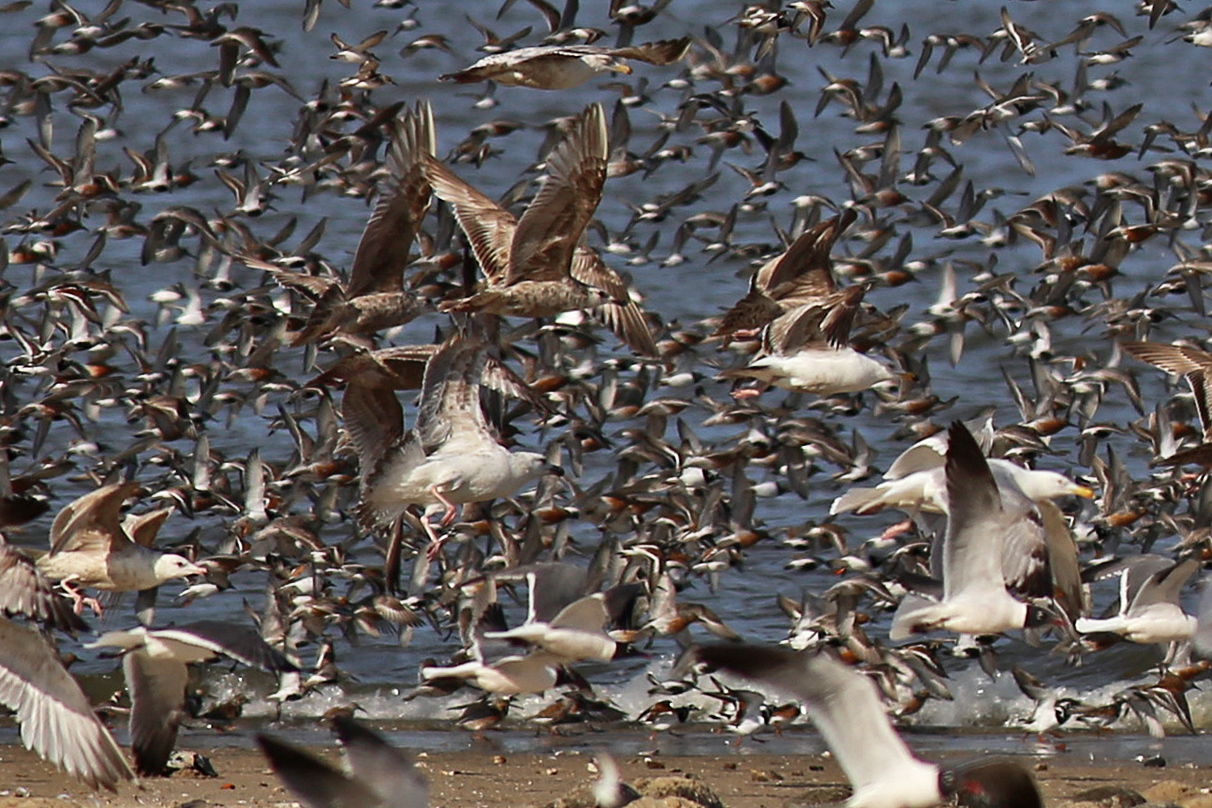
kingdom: Animalia
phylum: Chordata
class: Aves
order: Charadriiformes
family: Laridae
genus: Larus
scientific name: Larus marinus
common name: Great black-backed gull
